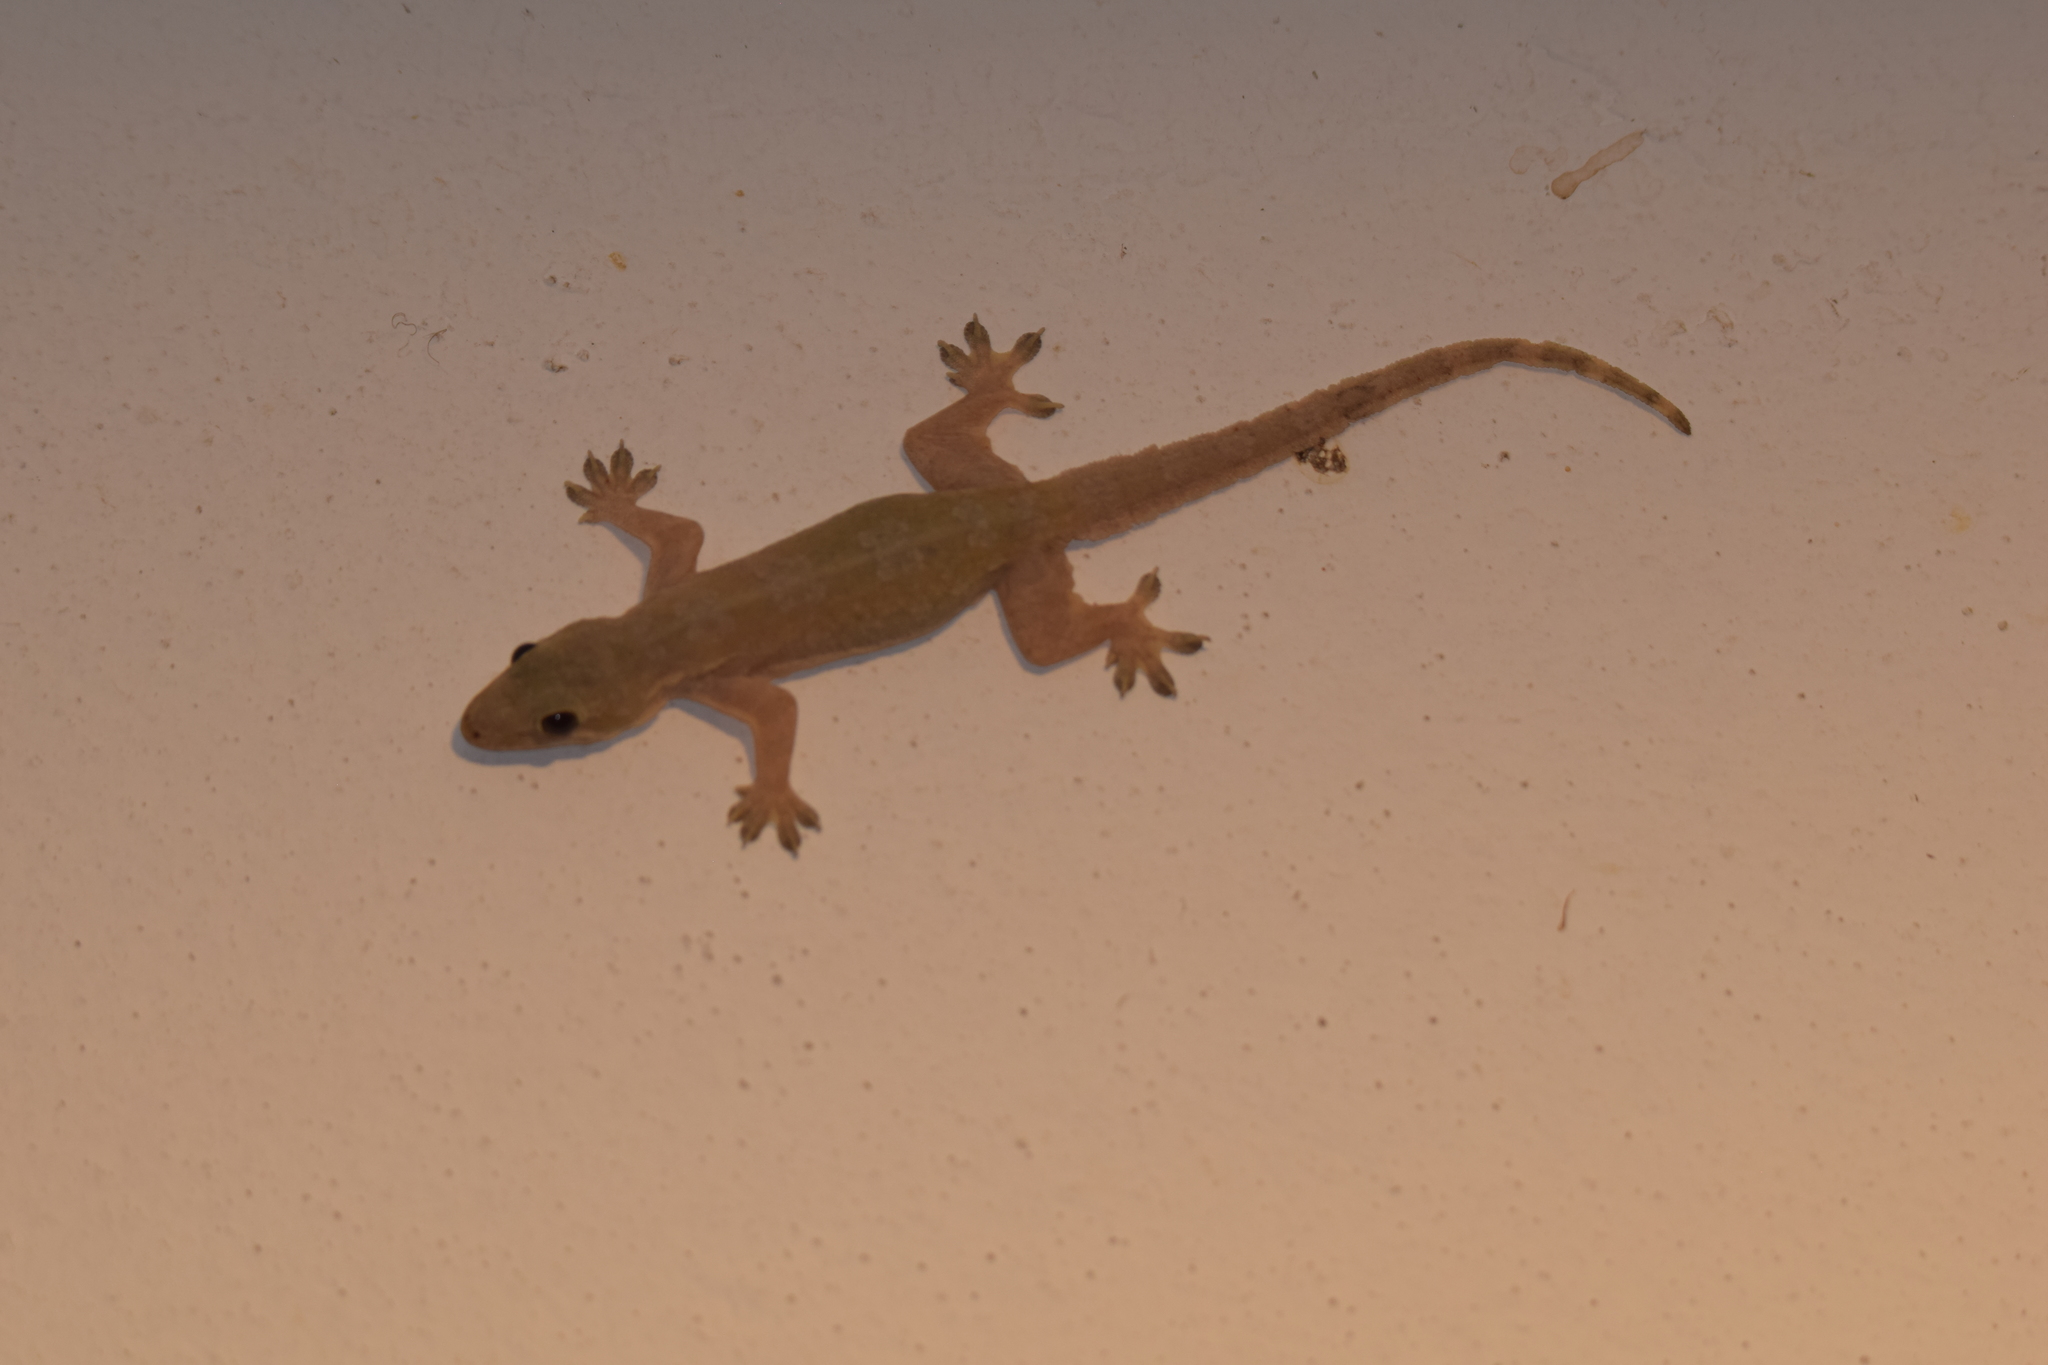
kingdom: Animalia
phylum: Chordata
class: Squamata
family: Gekkonidae
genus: Hemidactylus
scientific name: Hemidactylus platyurus
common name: Flat-tailed house gecko
